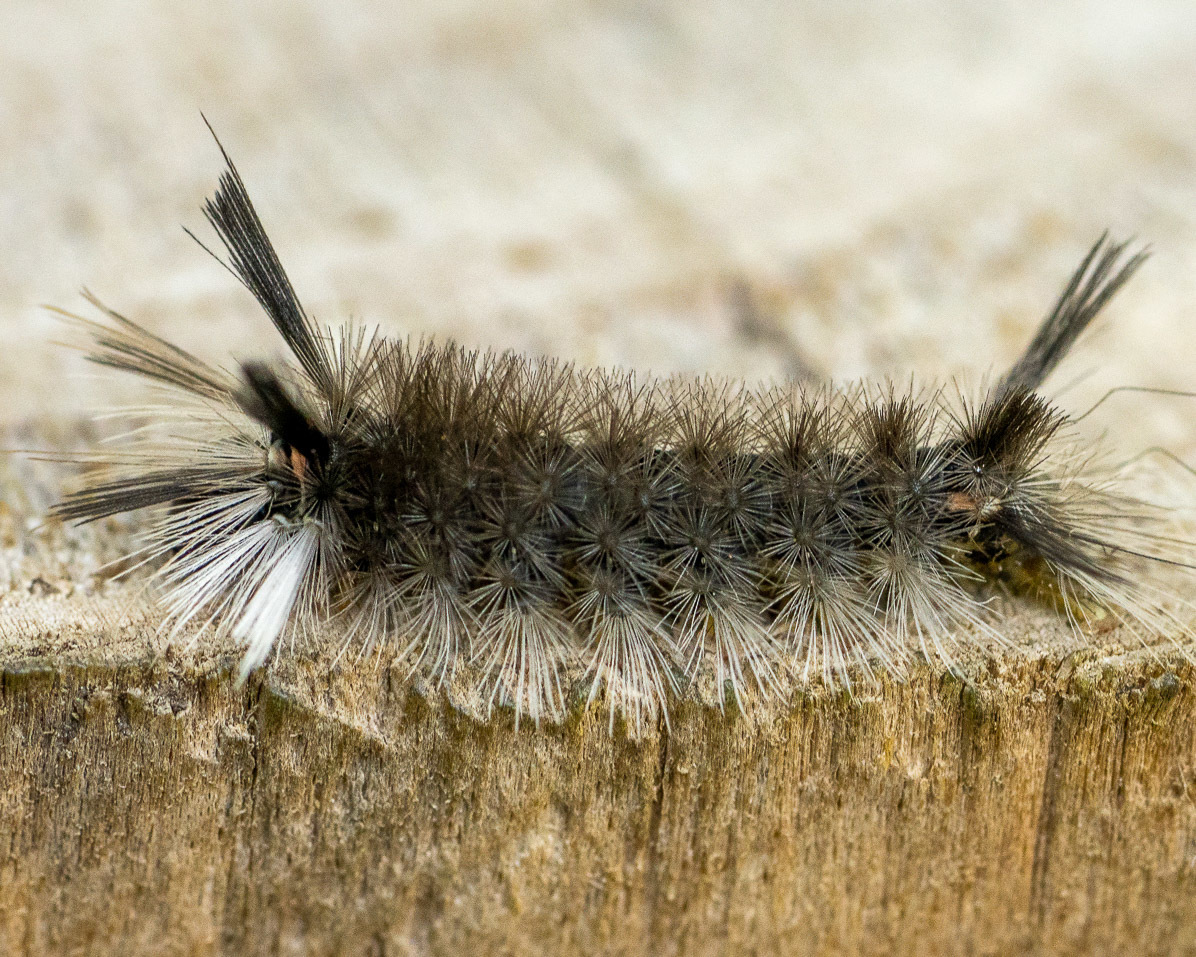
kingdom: Animalia
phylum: Arthropoda
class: Insecta
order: Lepidoptera
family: Erebidae
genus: Halysidota
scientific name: Halysidota tessellaris
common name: Banded tussock moth
